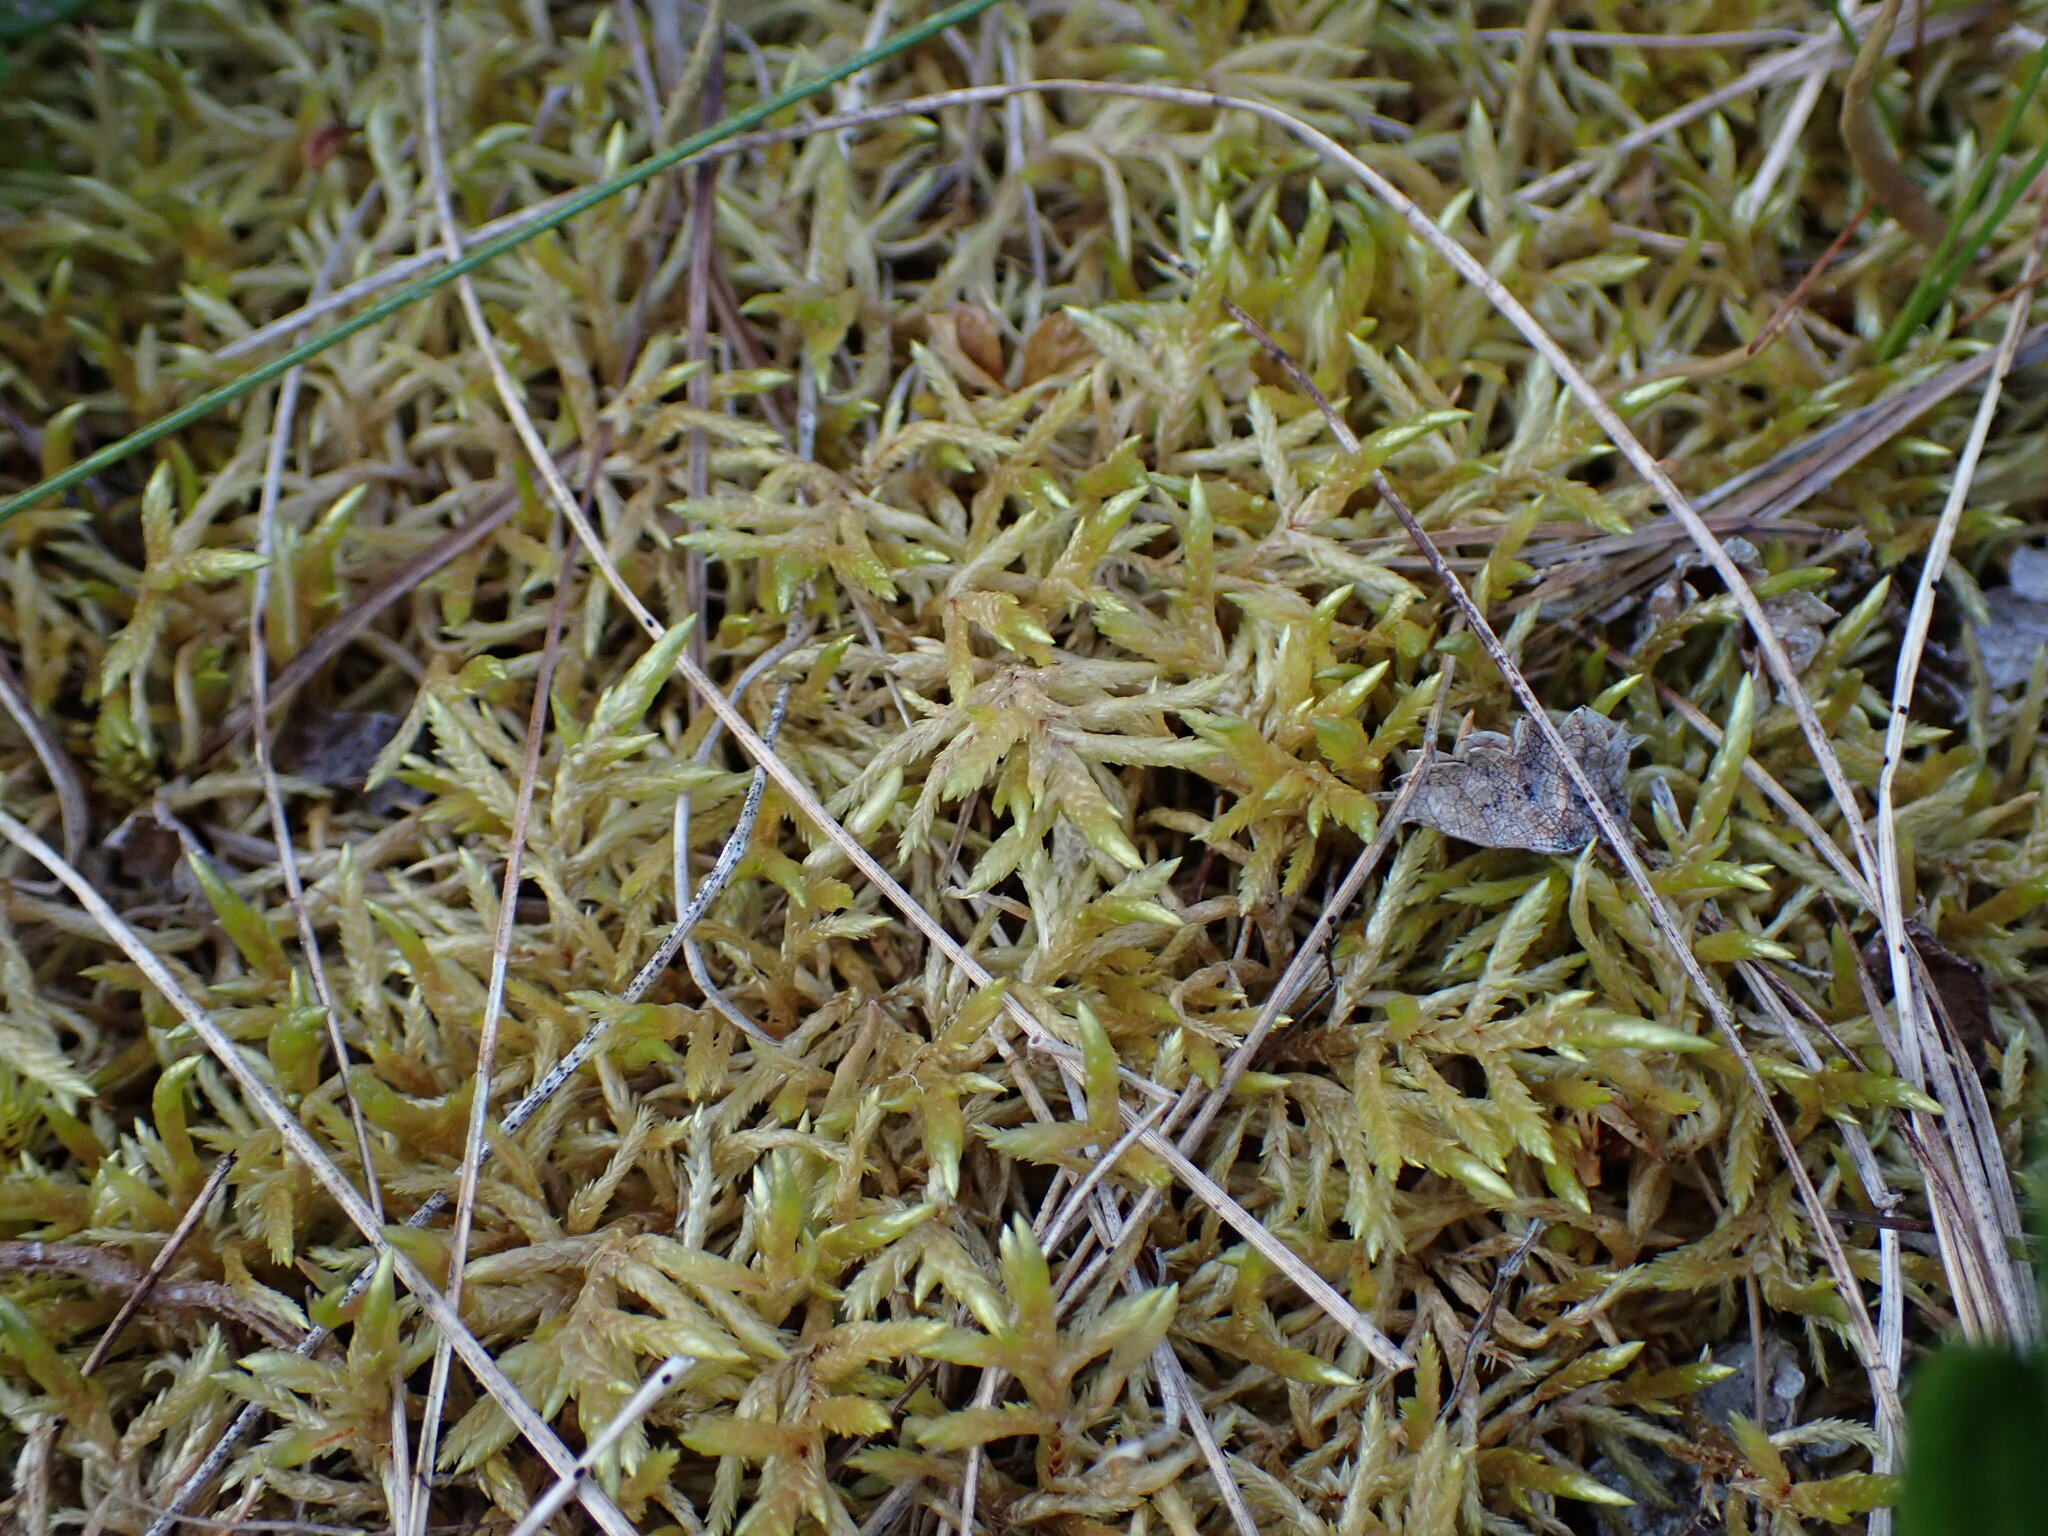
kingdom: Plantae
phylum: Bryophyta
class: Bryopsida
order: Hypnales
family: Hylocomiaceae
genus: Pleurozium
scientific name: Pleurozium schreberi
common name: Red-stemmed feather moss
